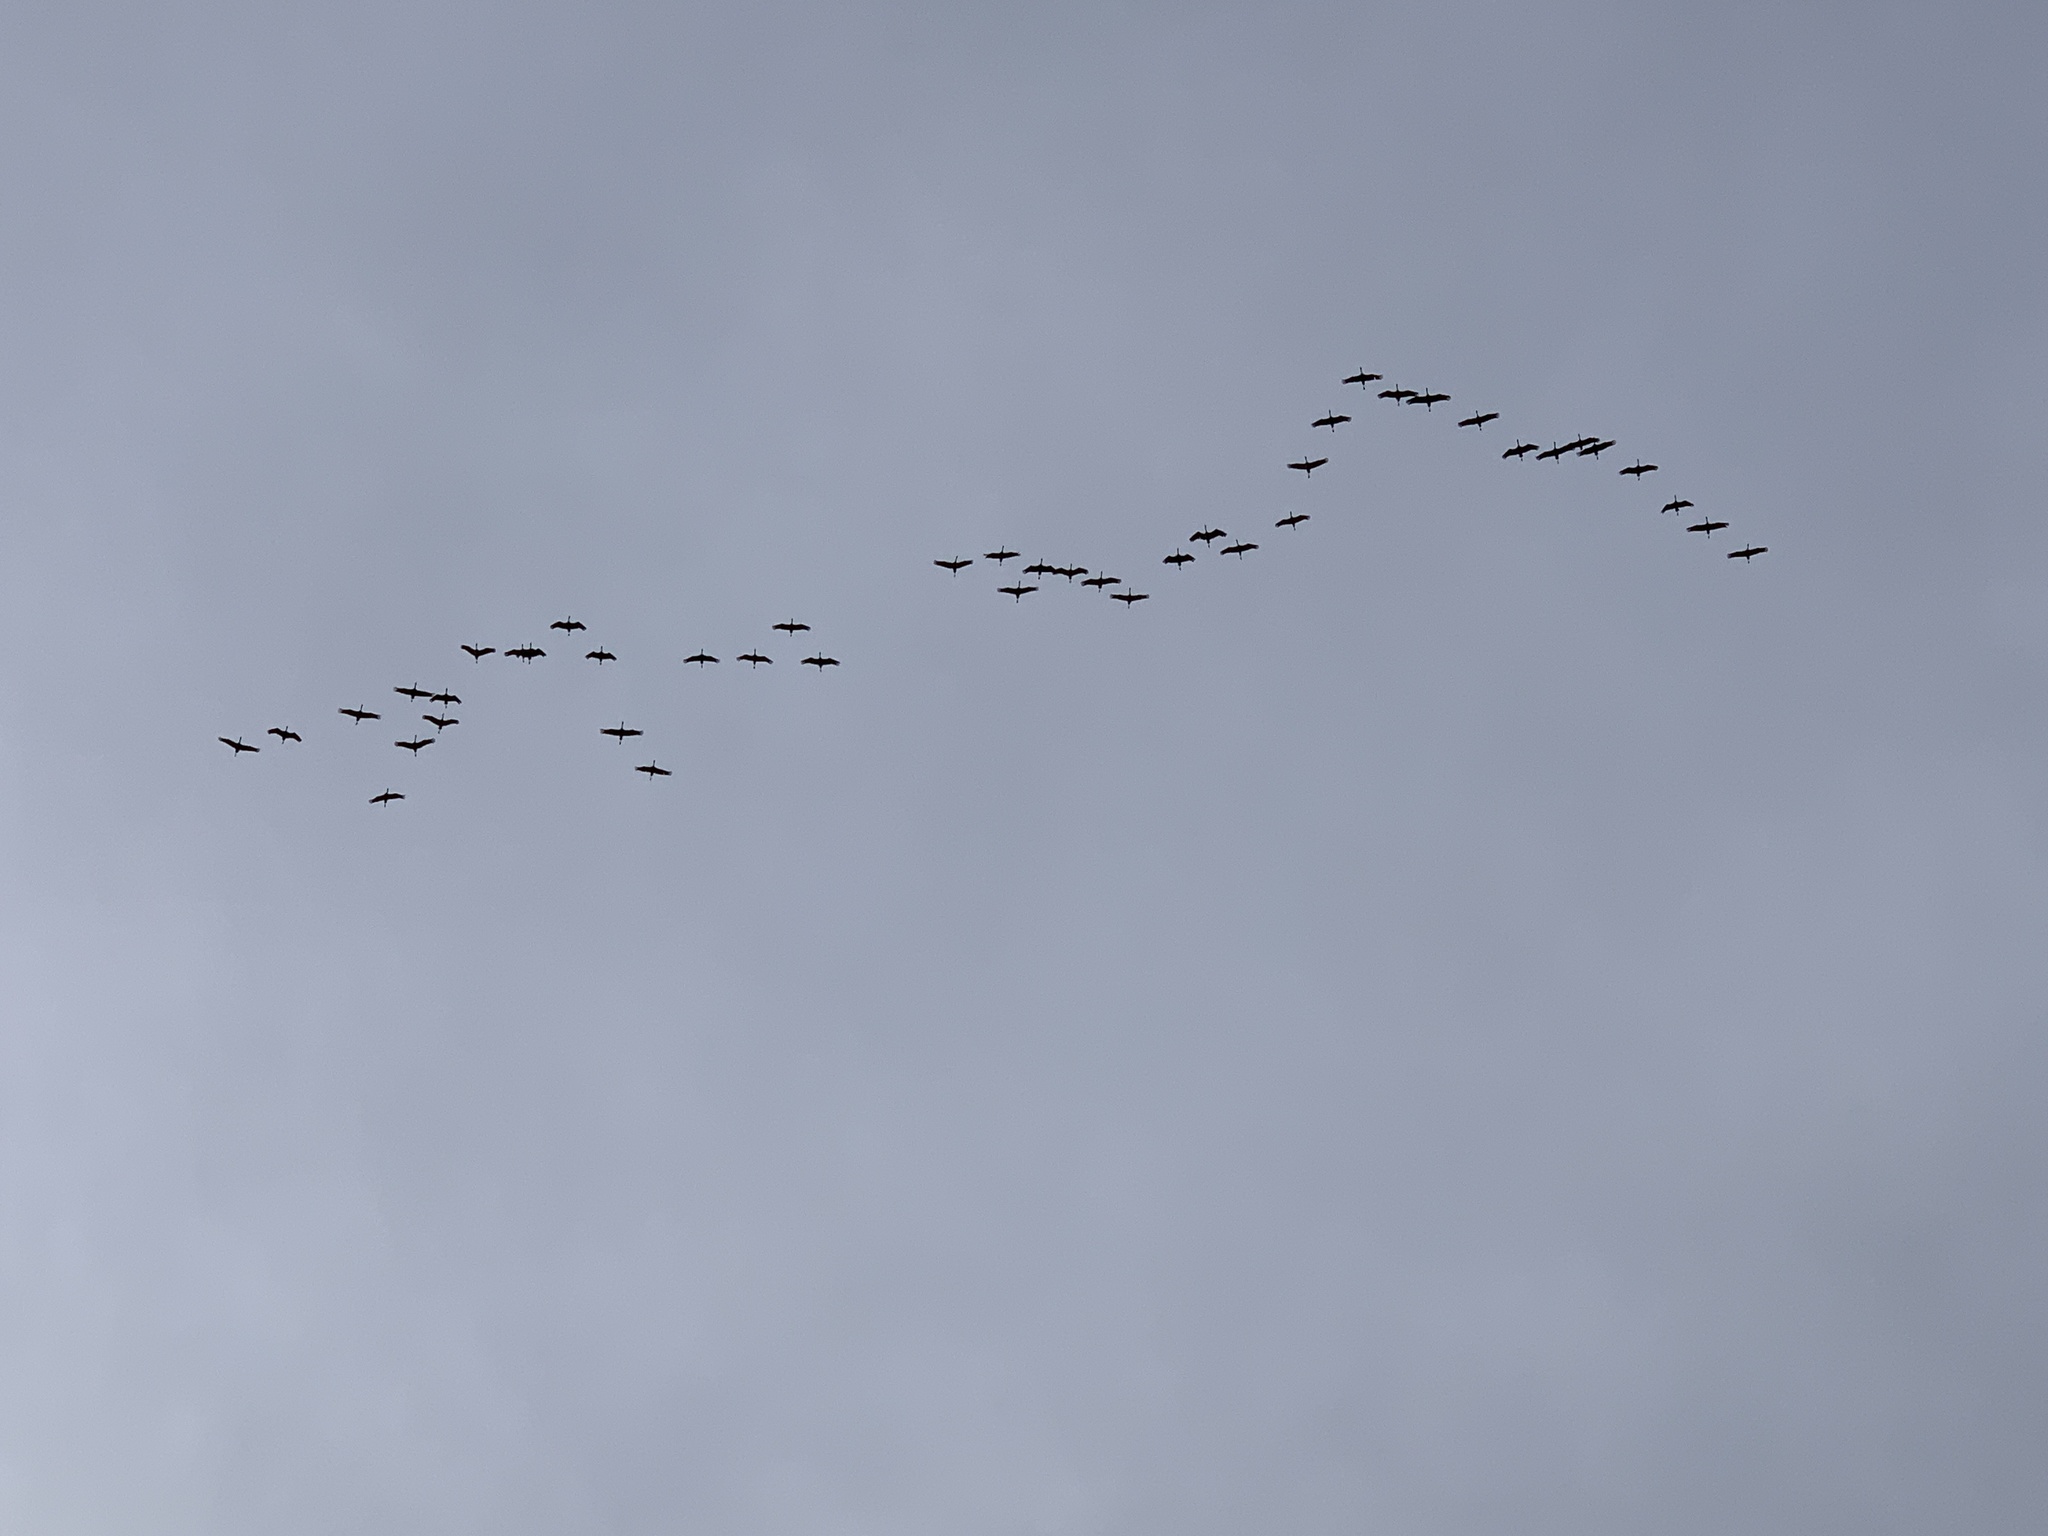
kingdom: Animalia
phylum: Chordata
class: Aves
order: Gruiformes
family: Gruidae
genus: Grus
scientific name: Grus grus
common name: Common crane
